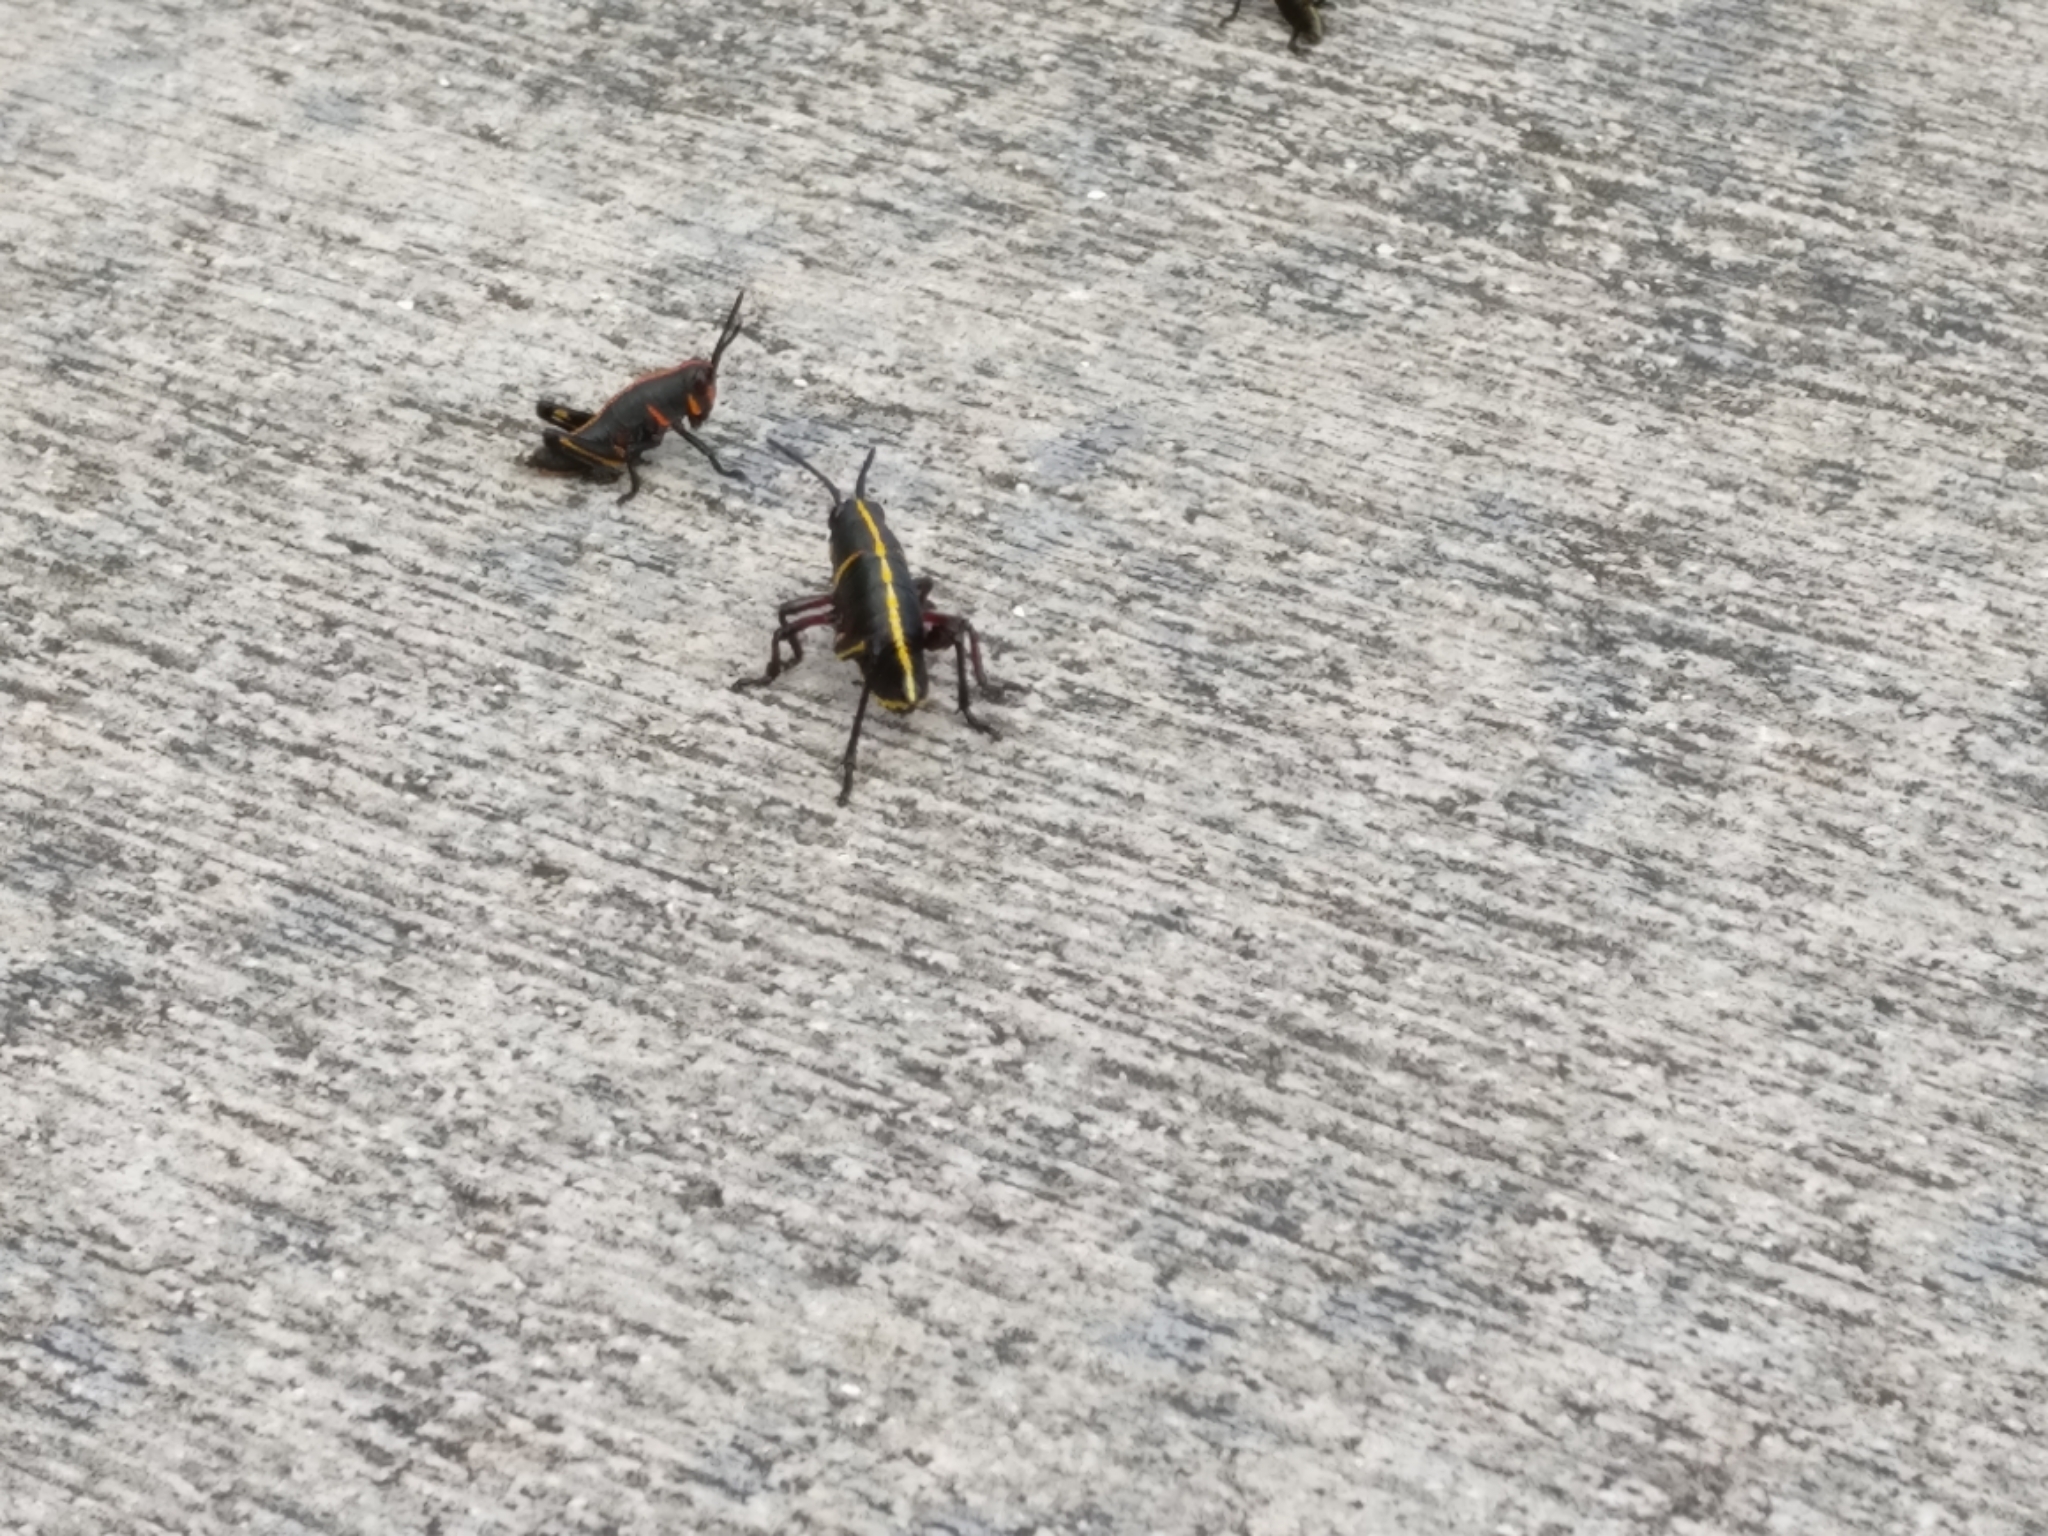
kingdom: Animalia
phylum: Arthropoda
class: Insecta
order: Orthoptera
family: Romaleidae
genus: Romalea
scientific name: Romalea microptera
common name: Eastern lubber grasshopper
